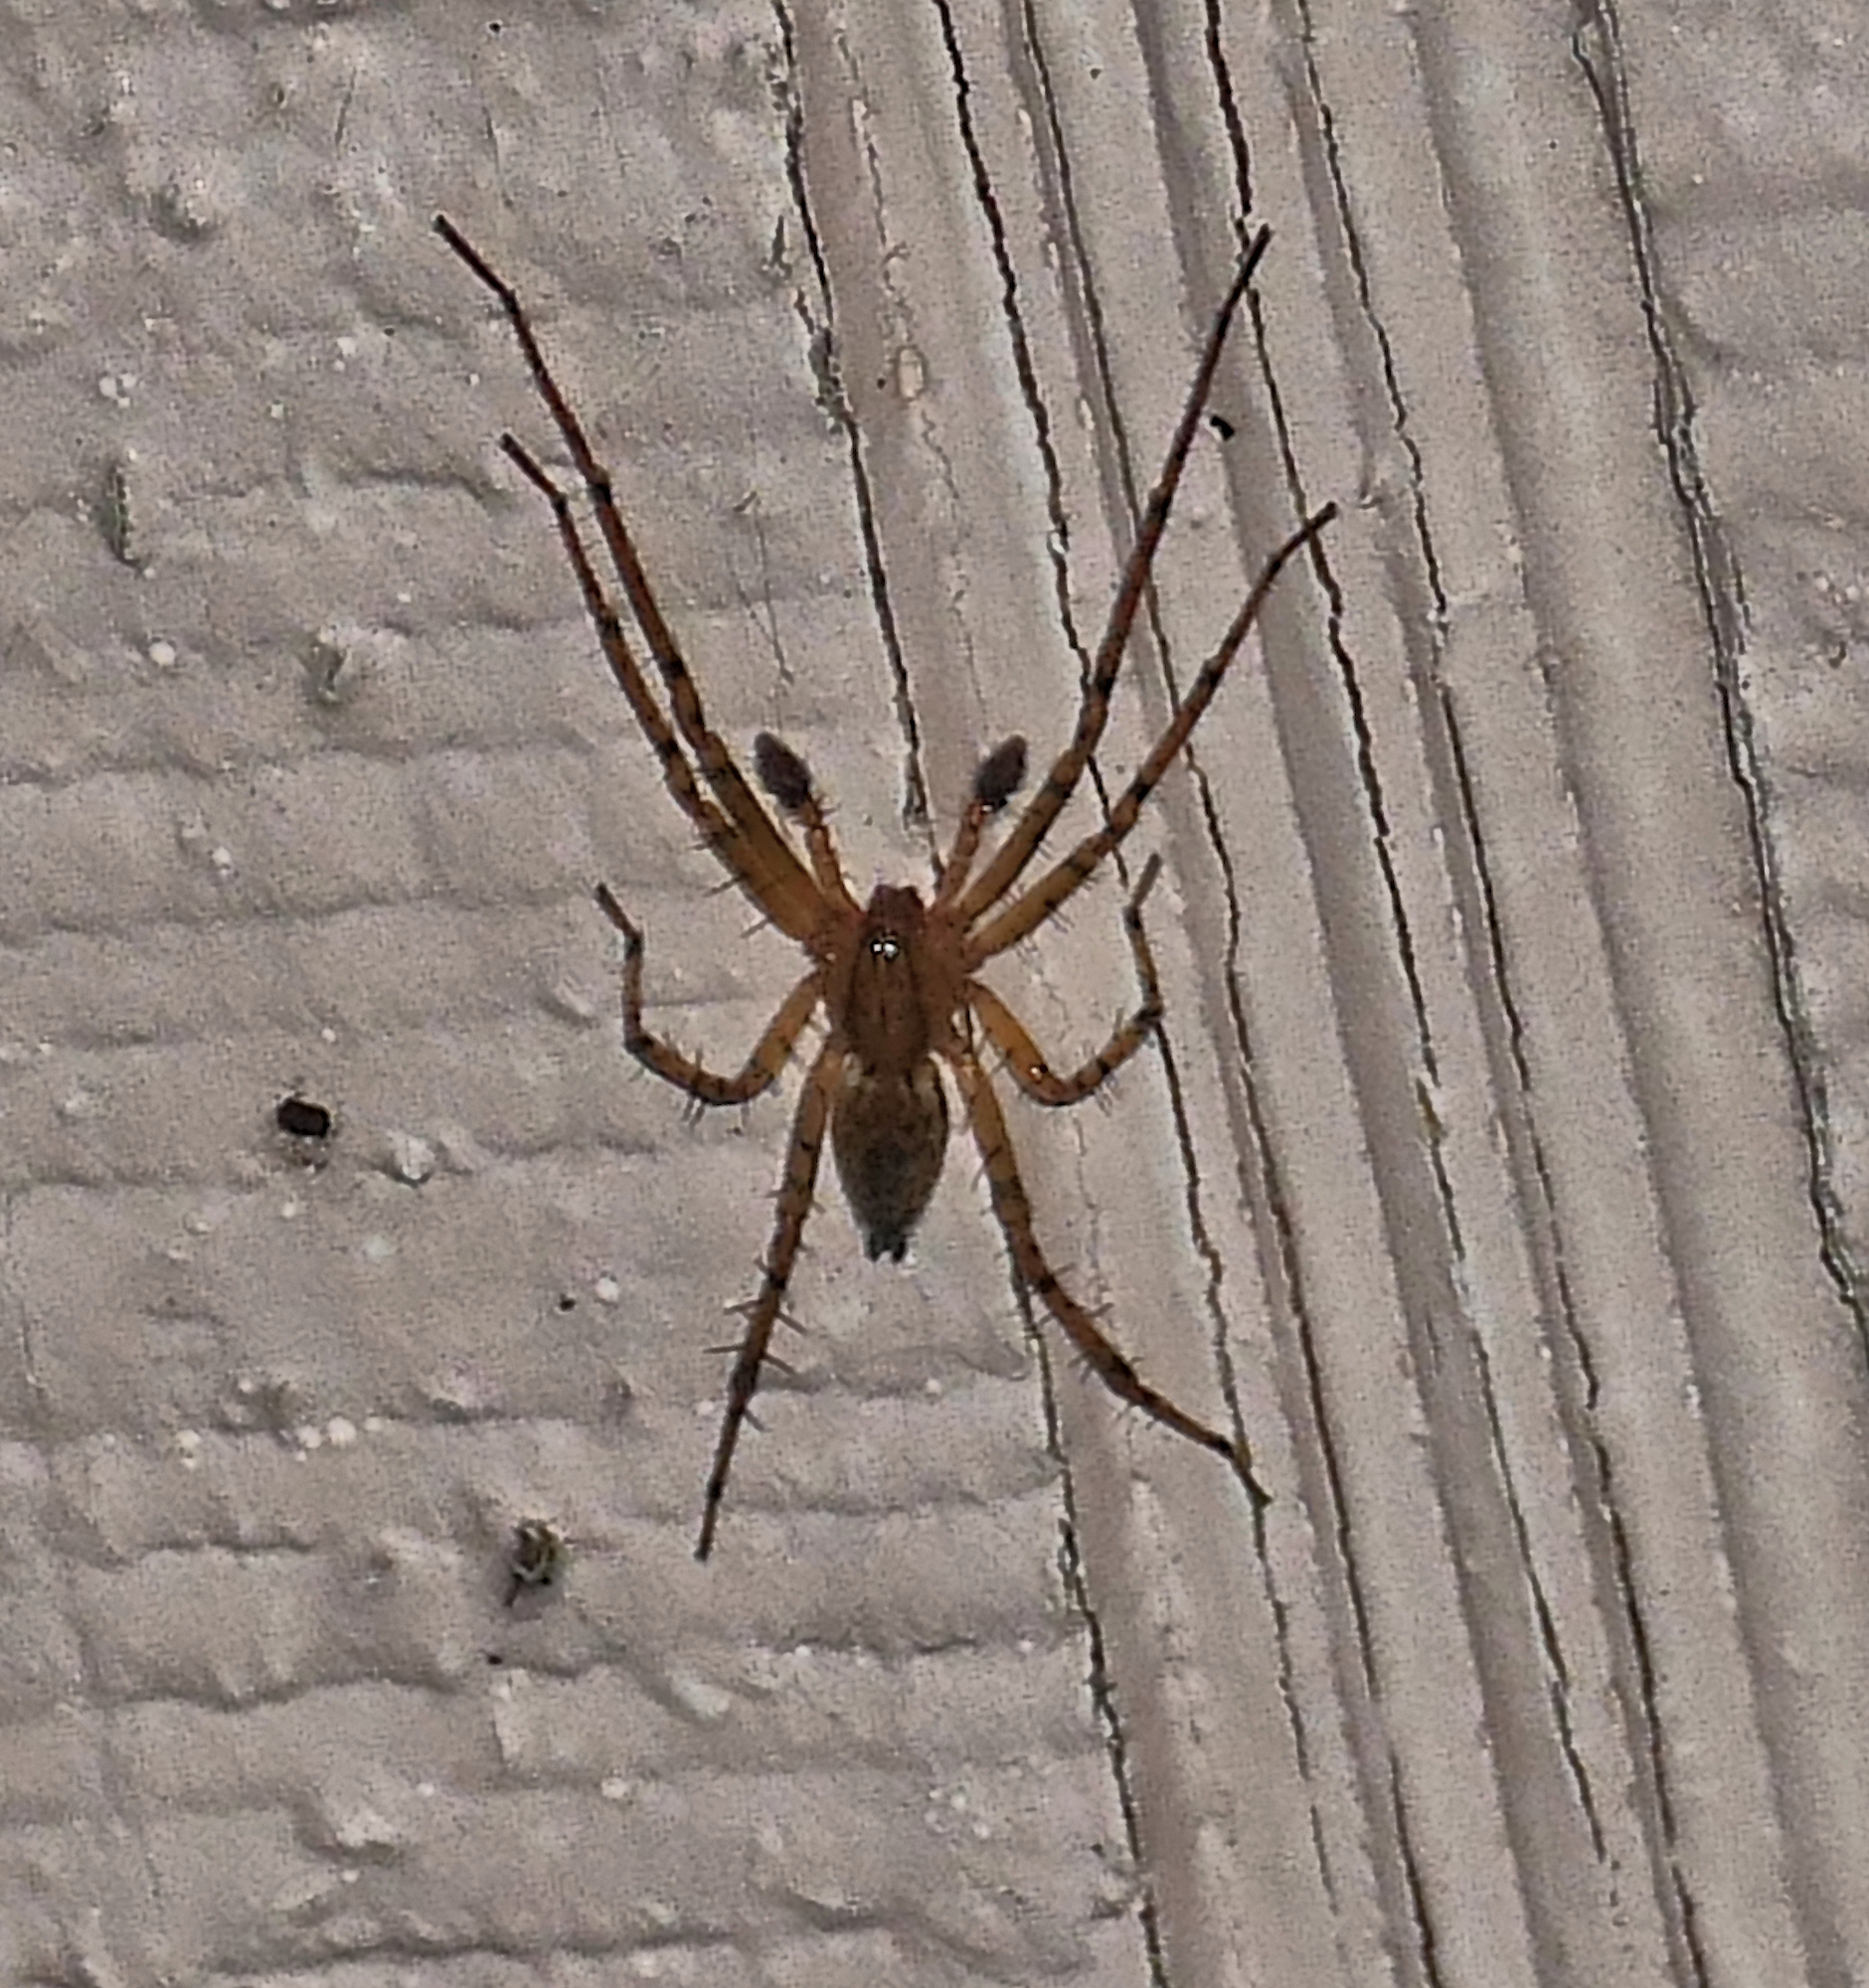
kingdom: Animalia
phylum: Arthropoda
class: Arachnida
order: Araneae
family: Anyphaenidae
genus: Anyphaena
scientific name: Anyphaena
